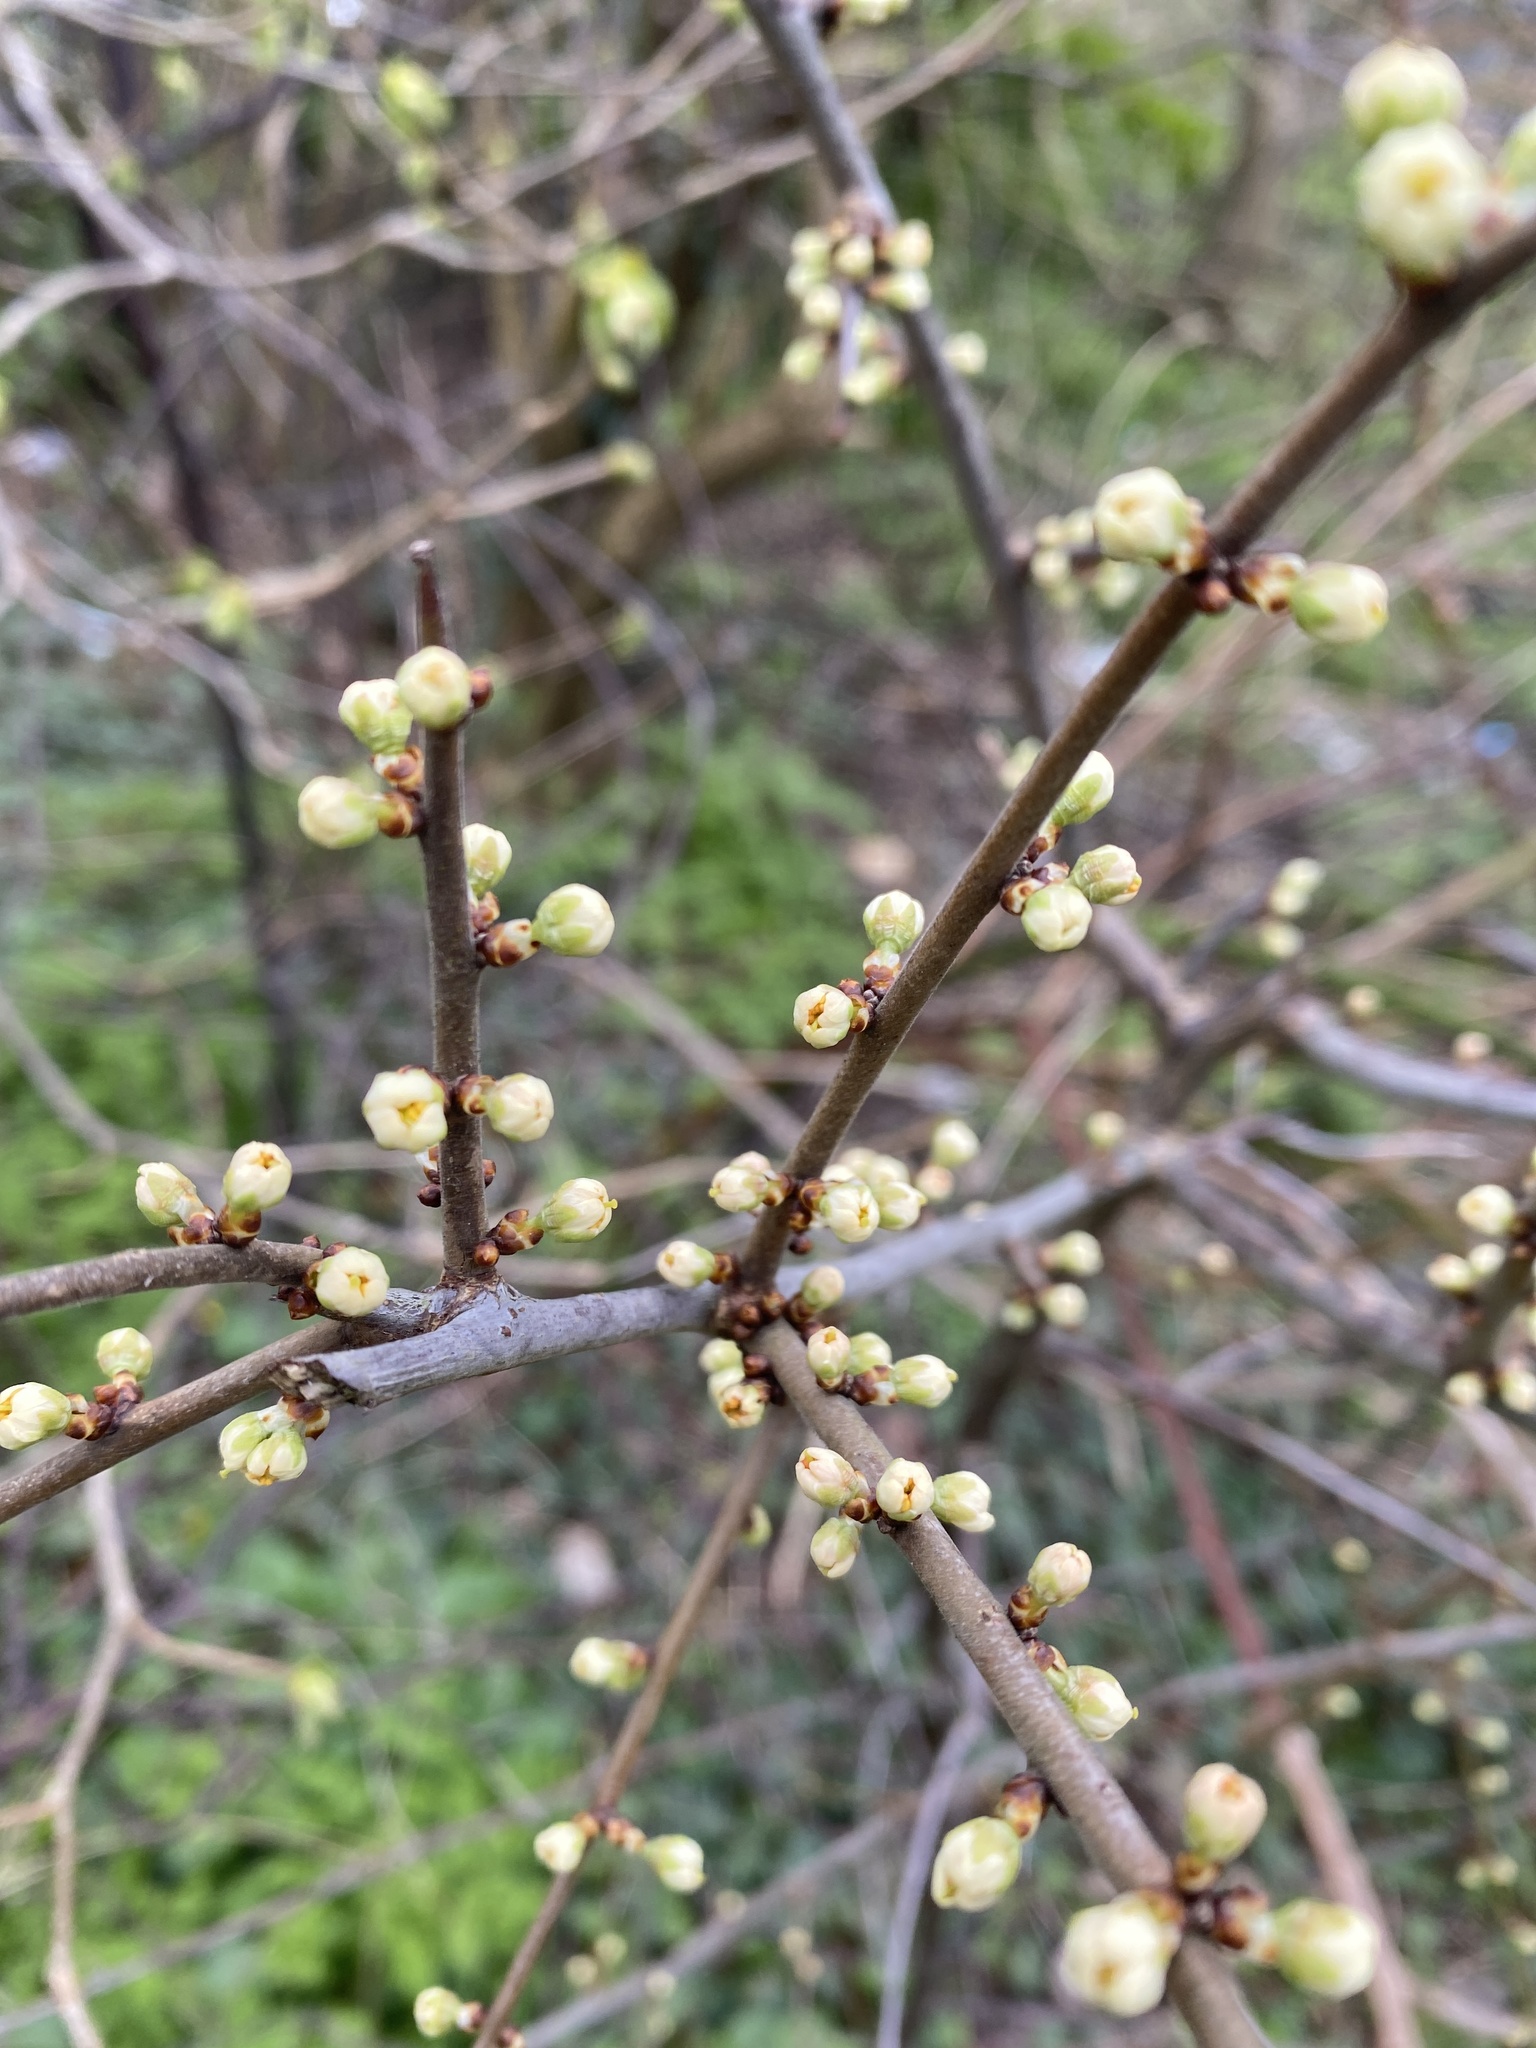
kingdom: Plantae
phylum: Tracheophyta
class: Magnoliopsida
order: Rosales
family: Rosaceae
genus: Prunus
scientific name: Prunus spinosa
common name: Blackthorn
